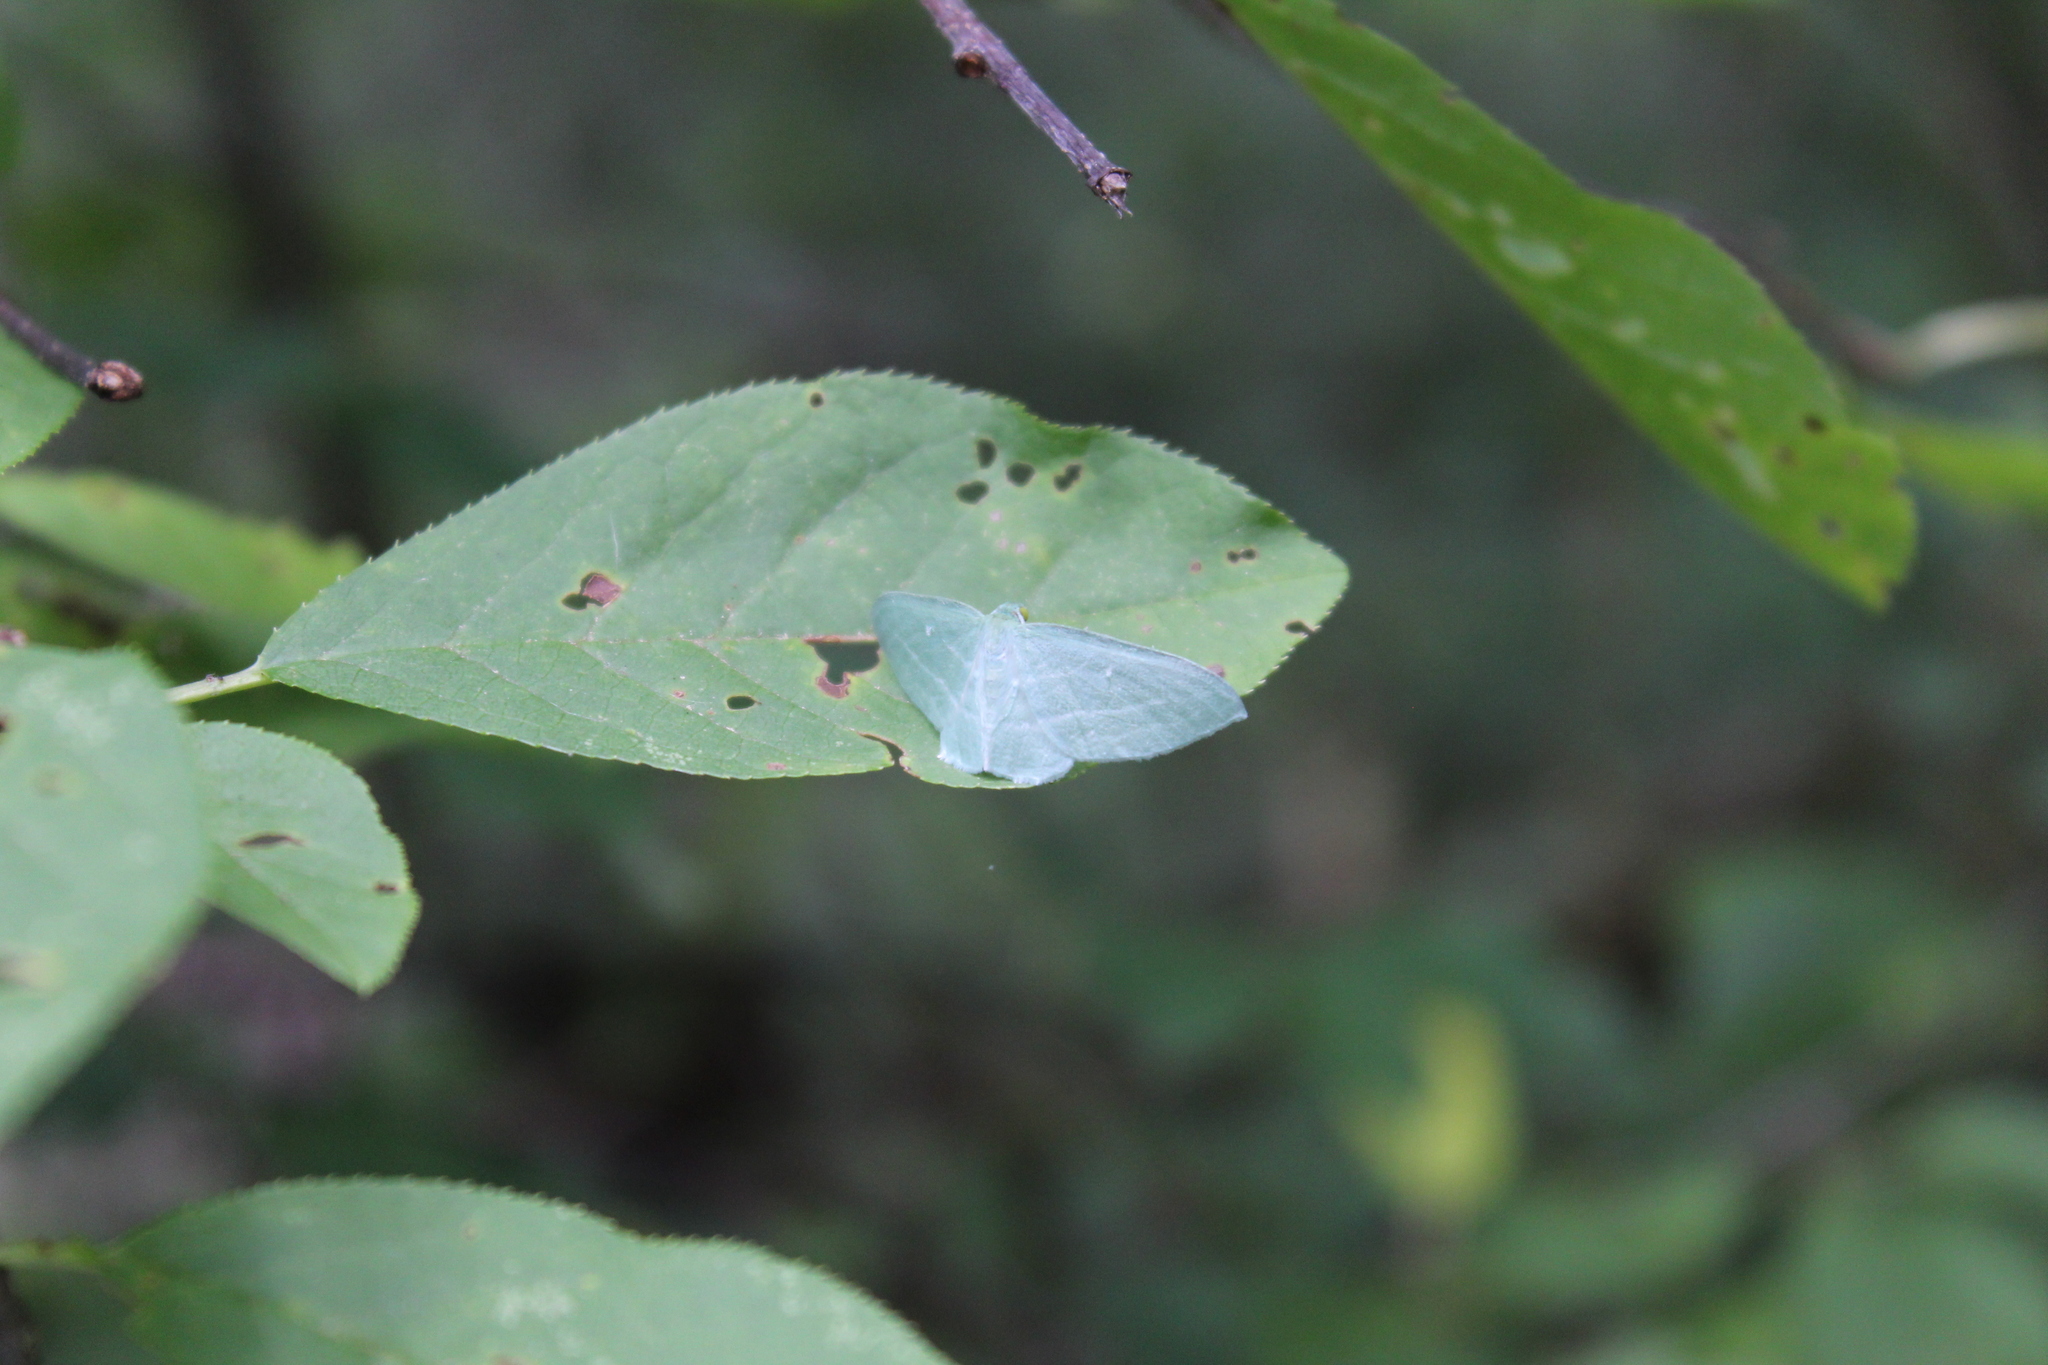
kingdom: Animalia
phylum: Arthropoda
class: Insecta
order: Lepidoptera
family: Geometridae
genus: Dyspteris
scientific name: Dyspteris abortivaria
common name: Bad-wing
